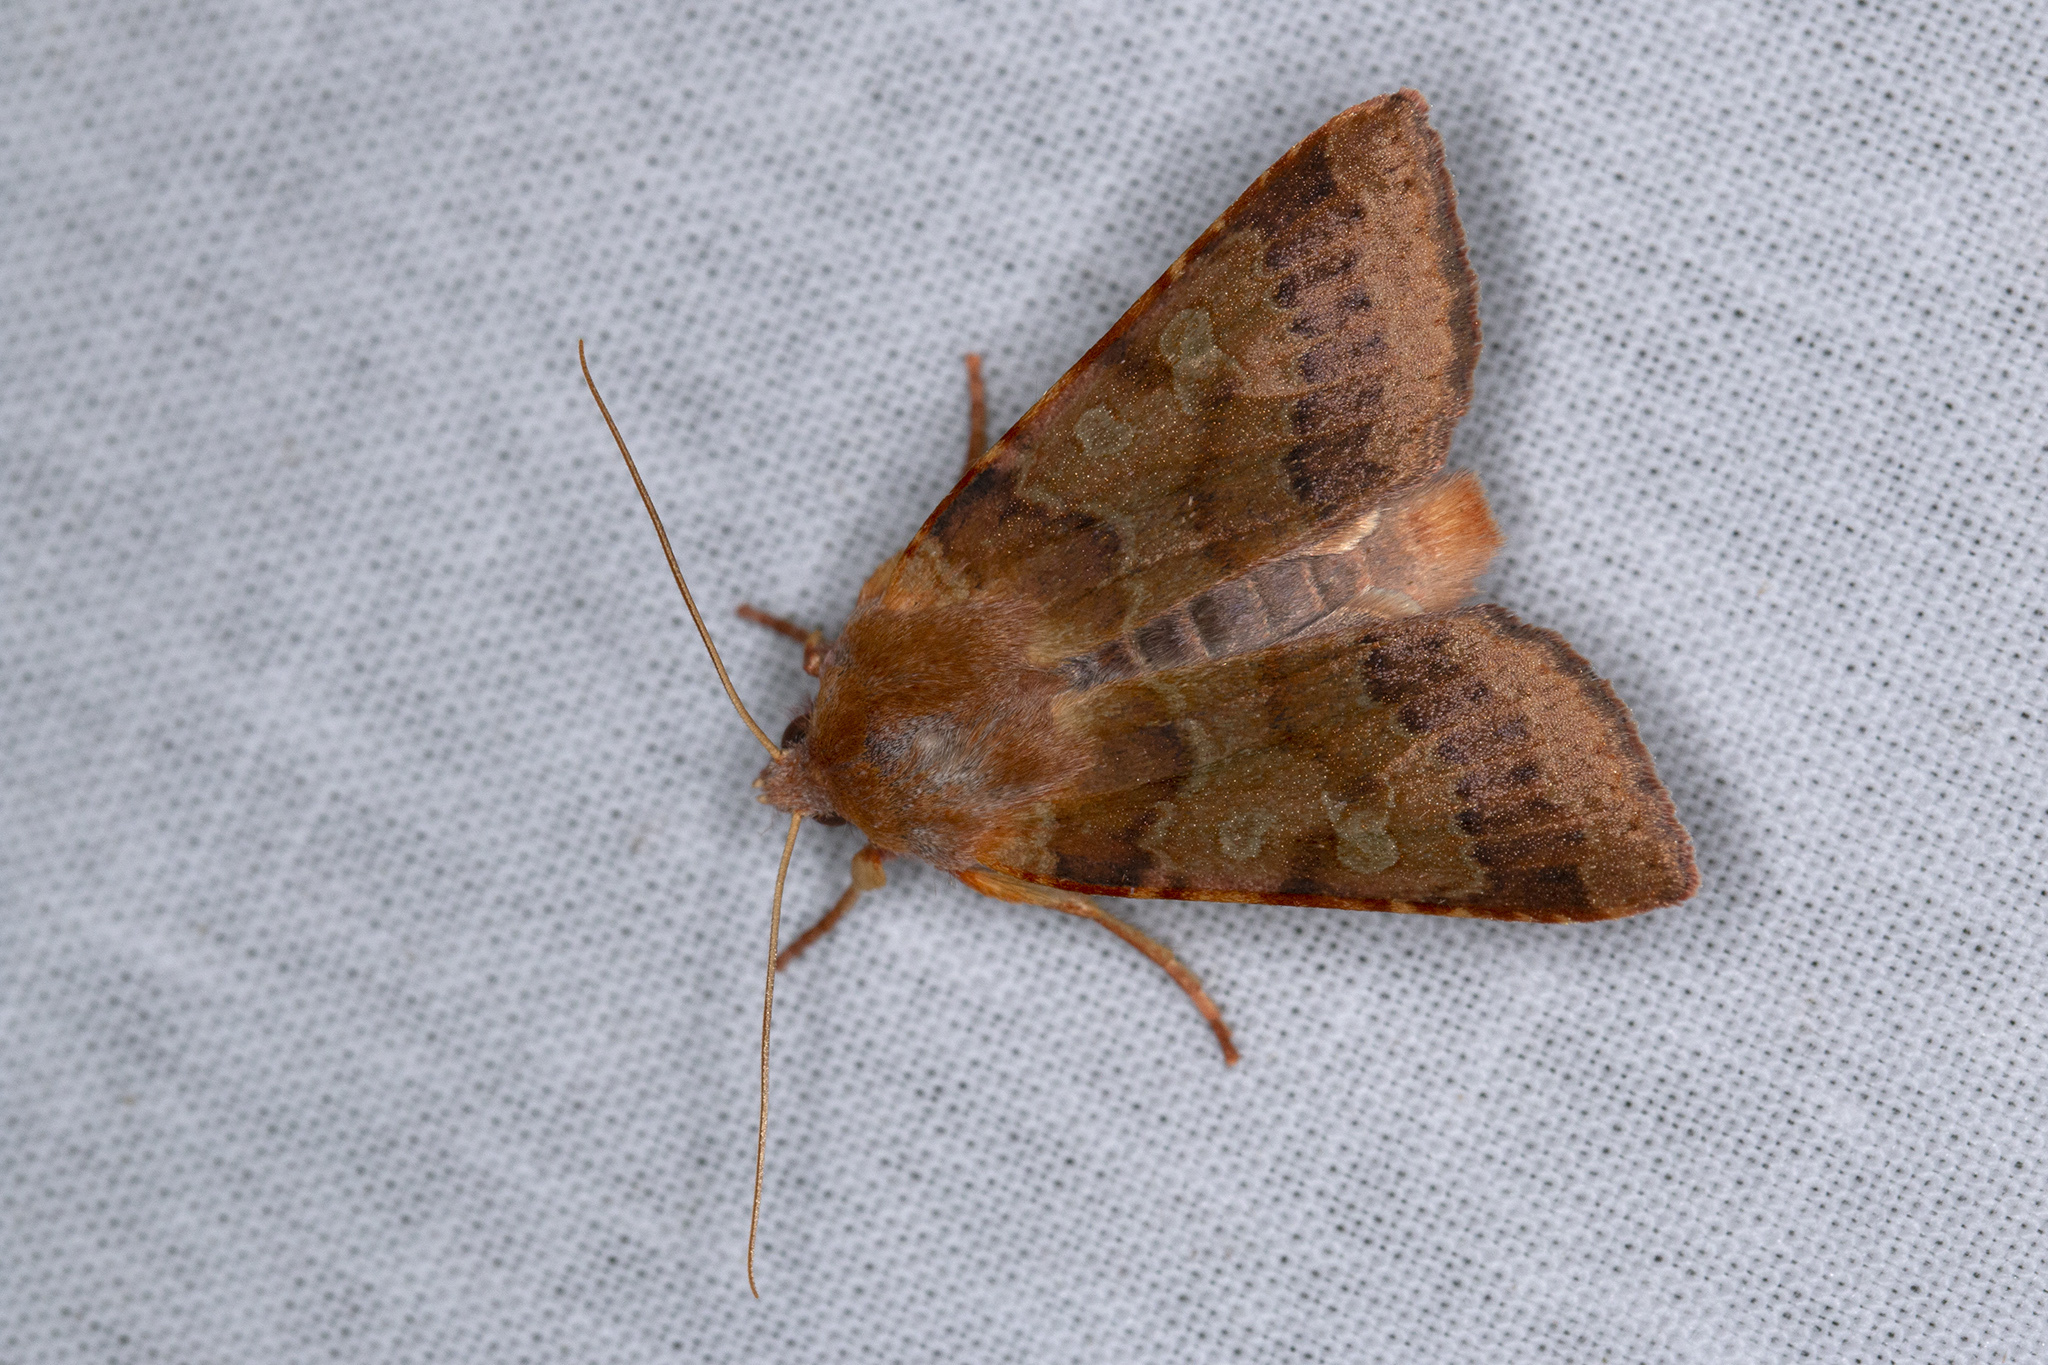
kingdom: Animalia
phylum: Arthropoda
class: Insecta
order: Lepidoptera
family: Noctuidae
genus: Agrochola
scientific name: Agrochola helvola
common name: Flounced chestnut
